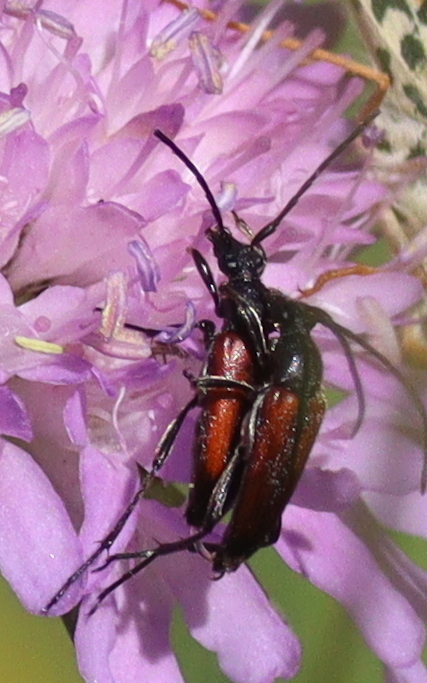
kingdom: Animalia
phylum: Arthropoda
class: Insecta
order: Coleoptera
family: Cerambycidae
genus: Stenurella
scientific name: Stenurella melanura
